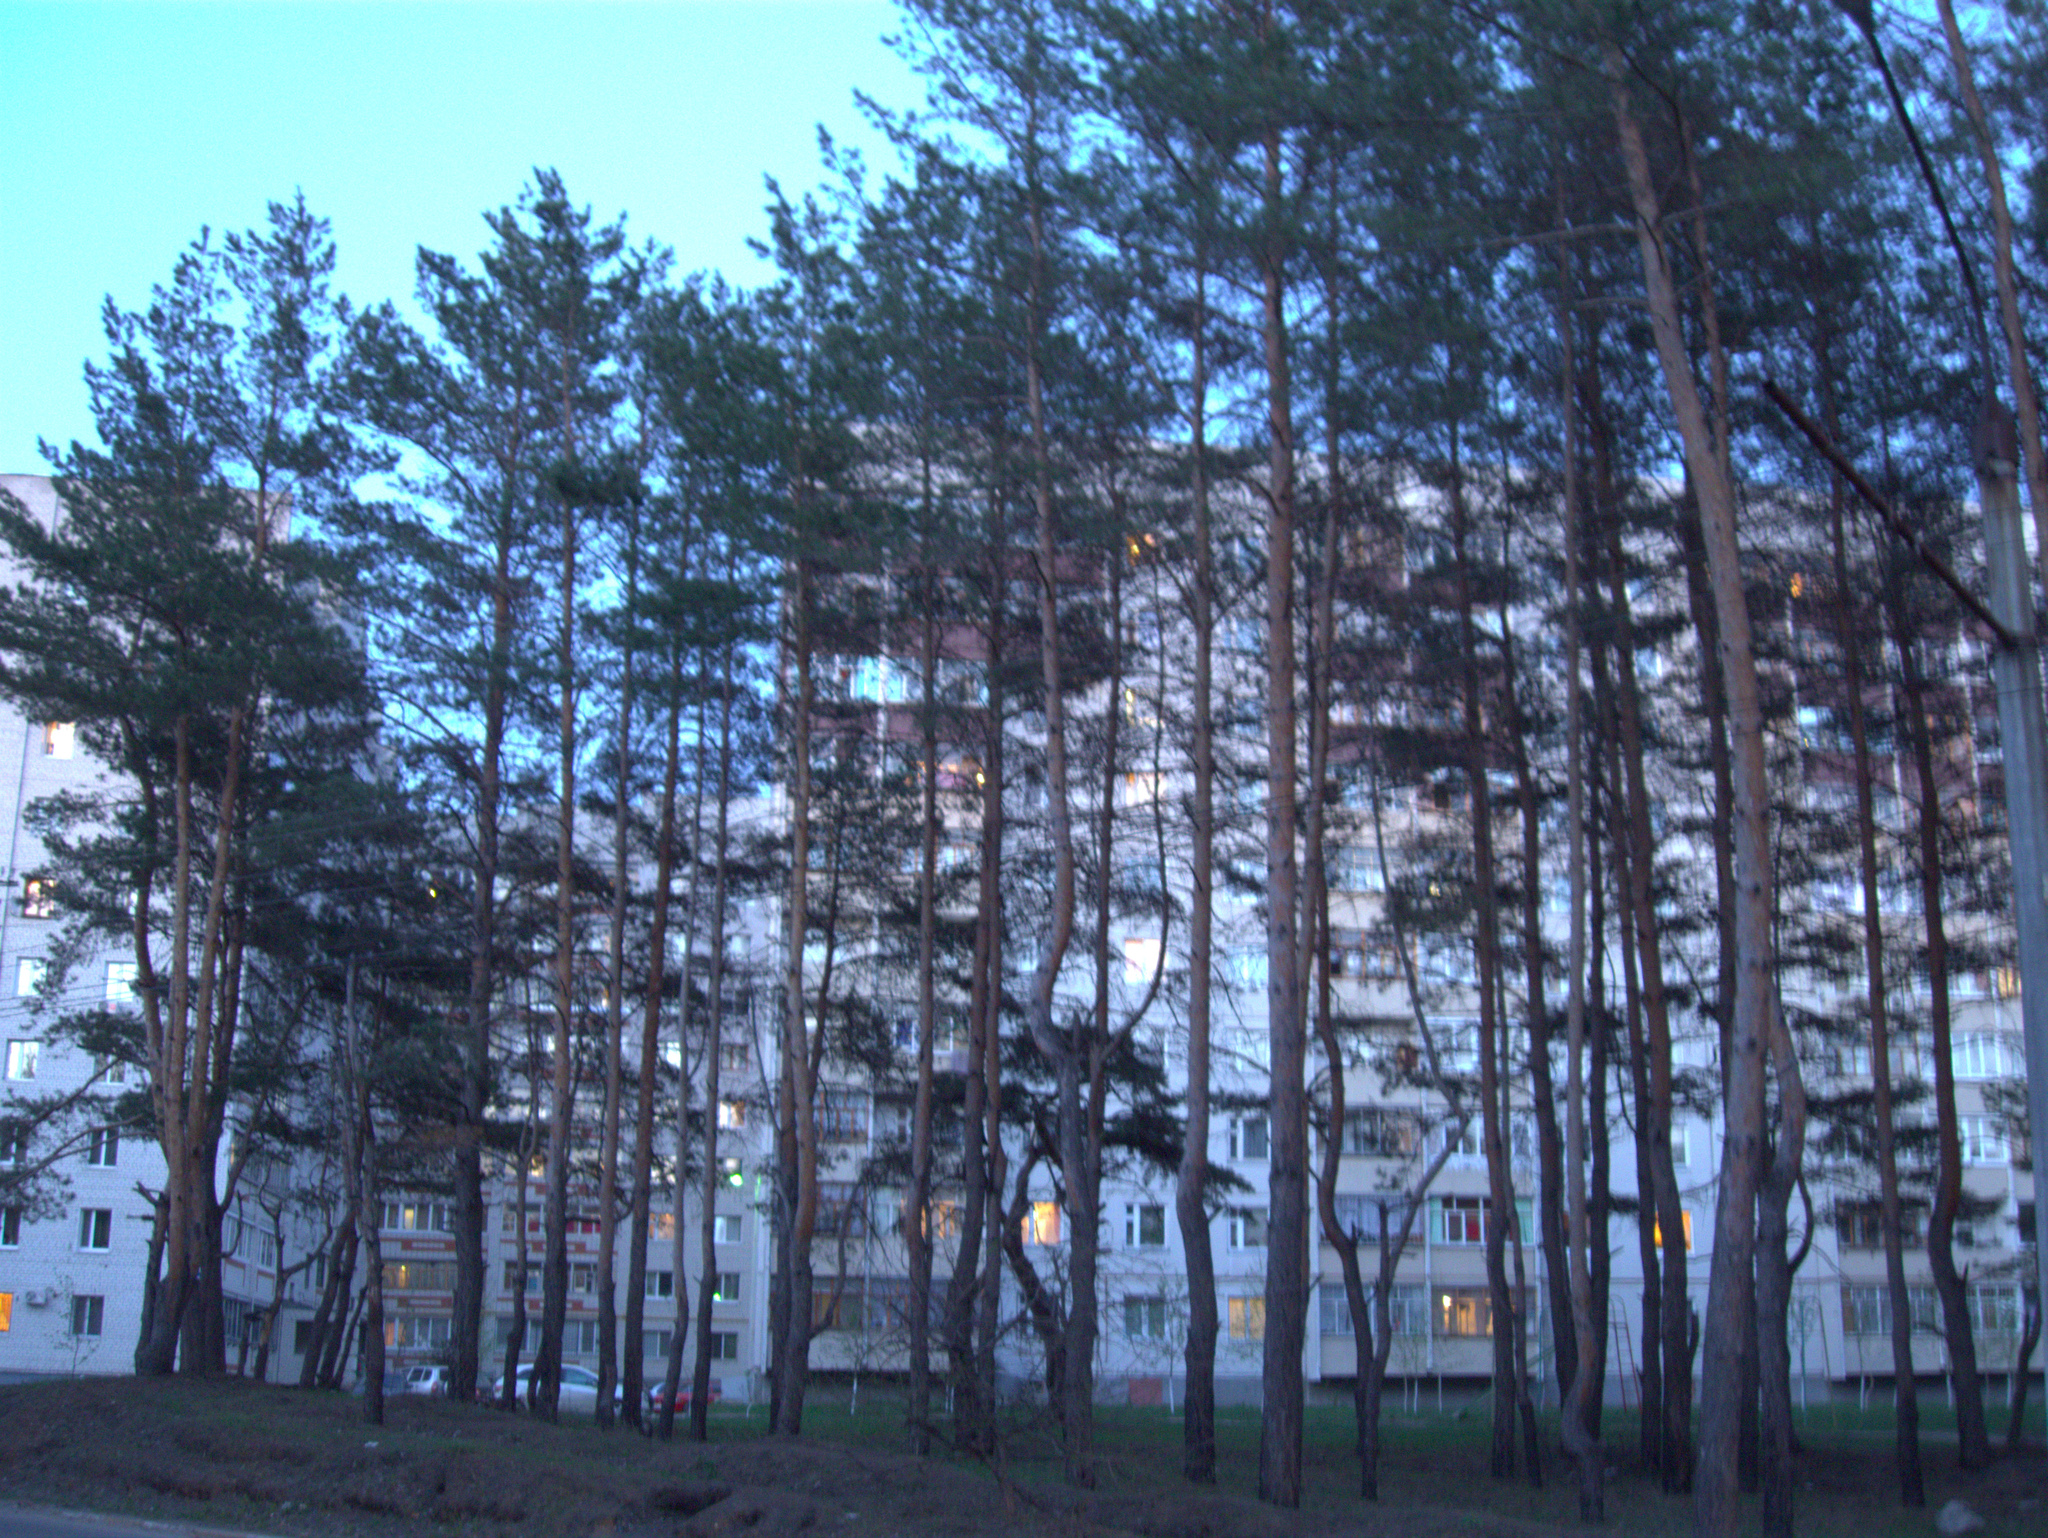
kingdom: Plantae
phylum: Tracheophyta
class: Pinopsida
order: Pinales
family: Pinaceae
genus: Pinus
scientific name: Pinus sylvestris
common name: Scots pine
